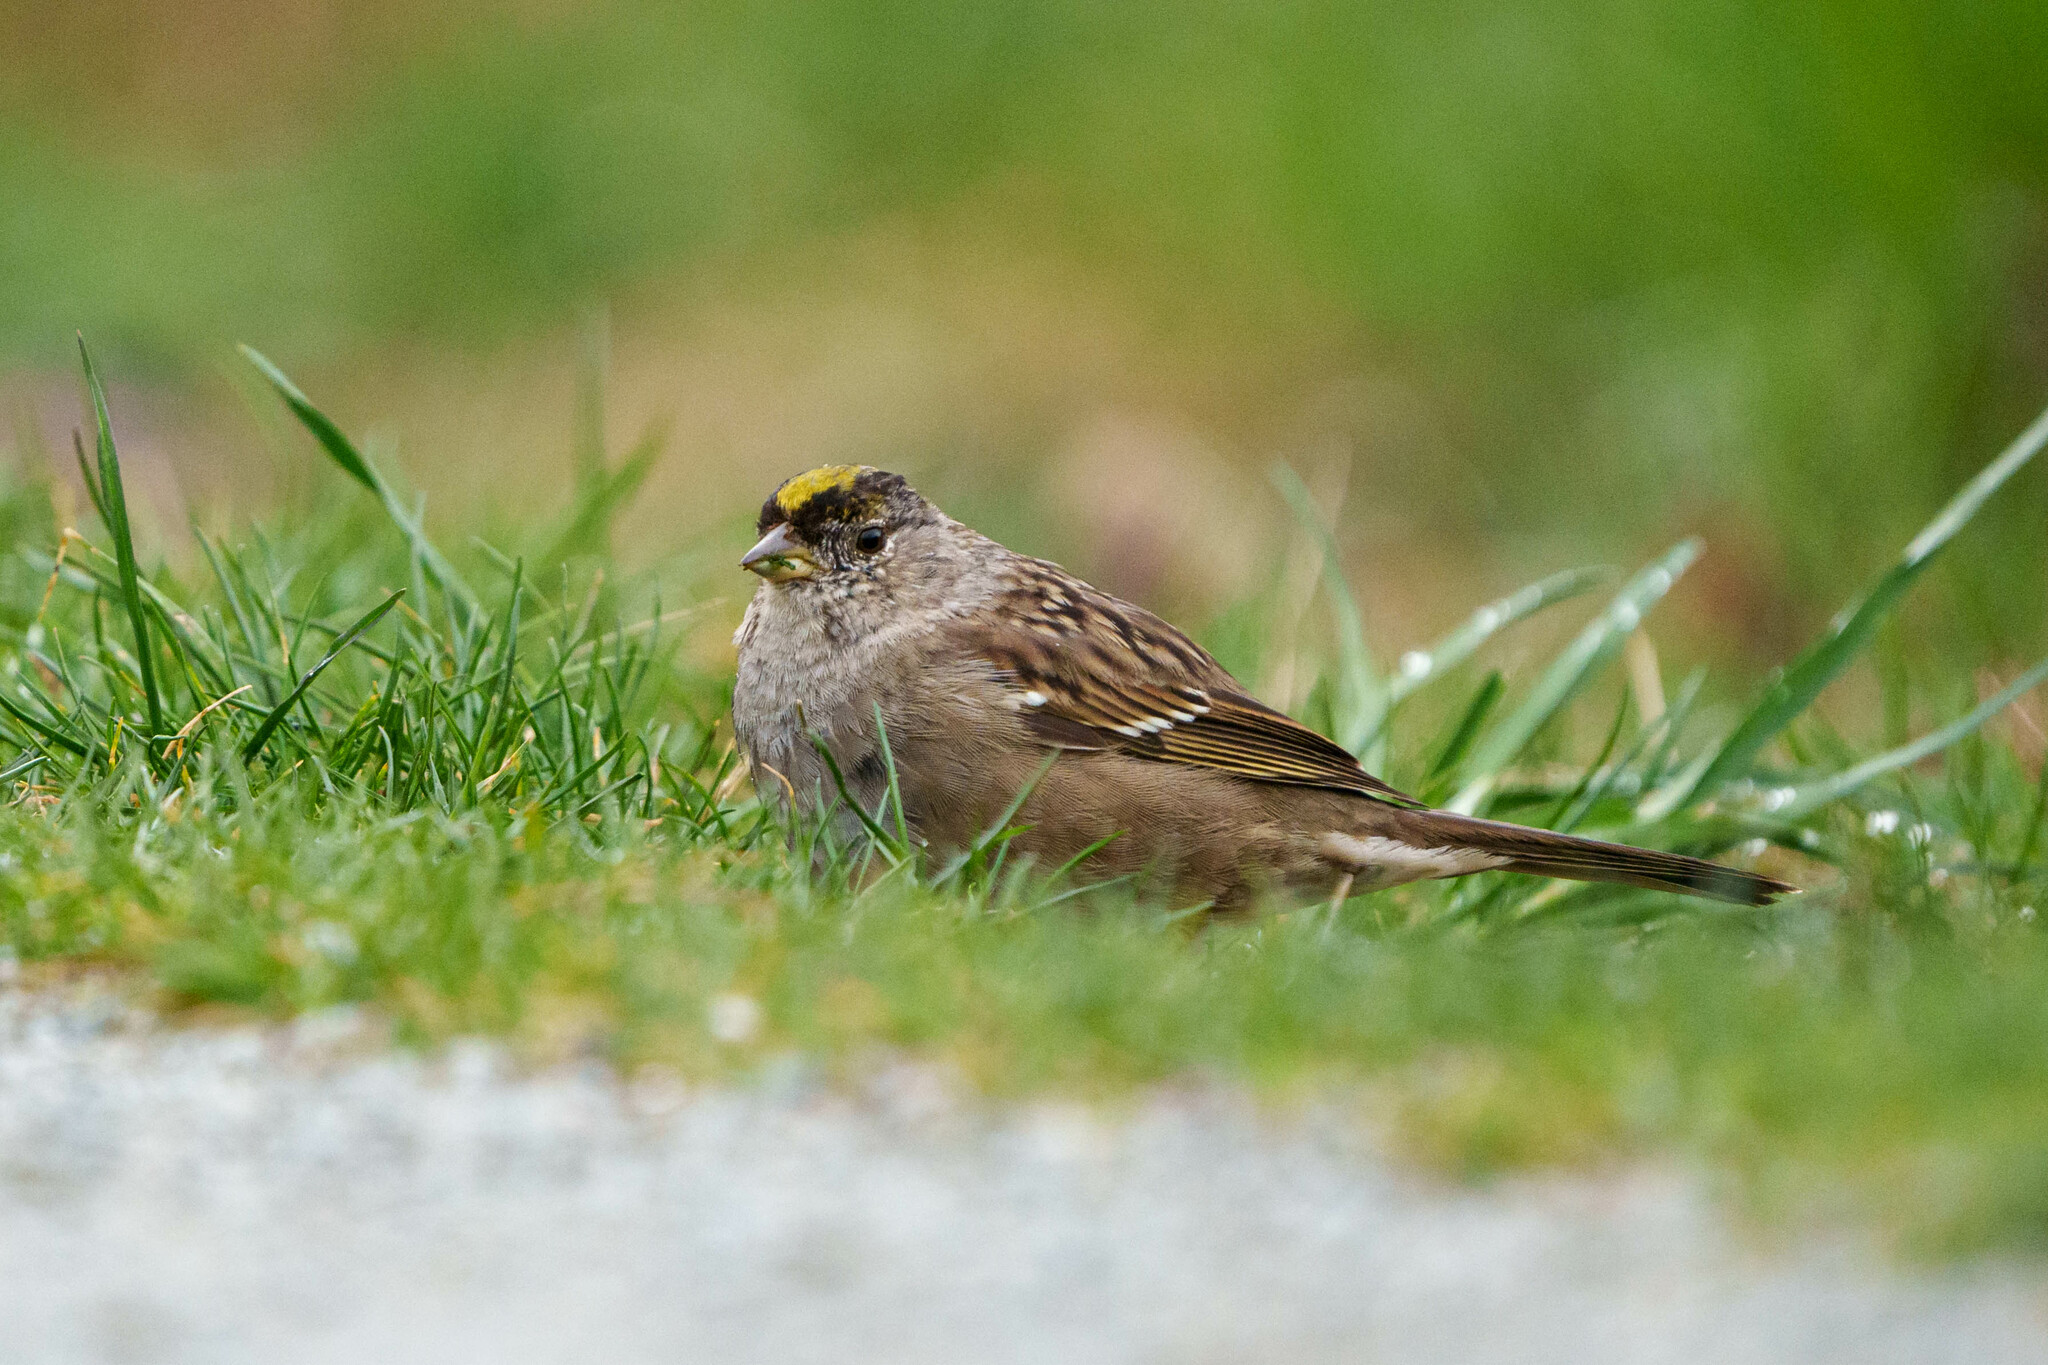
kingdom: Animalia
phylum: Chordata
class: Aves
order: Passeriformes
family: Passerellidae
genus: Zonotrichia
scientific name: Zonotrichia atricapilla
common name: Golden-crowned sparrow
